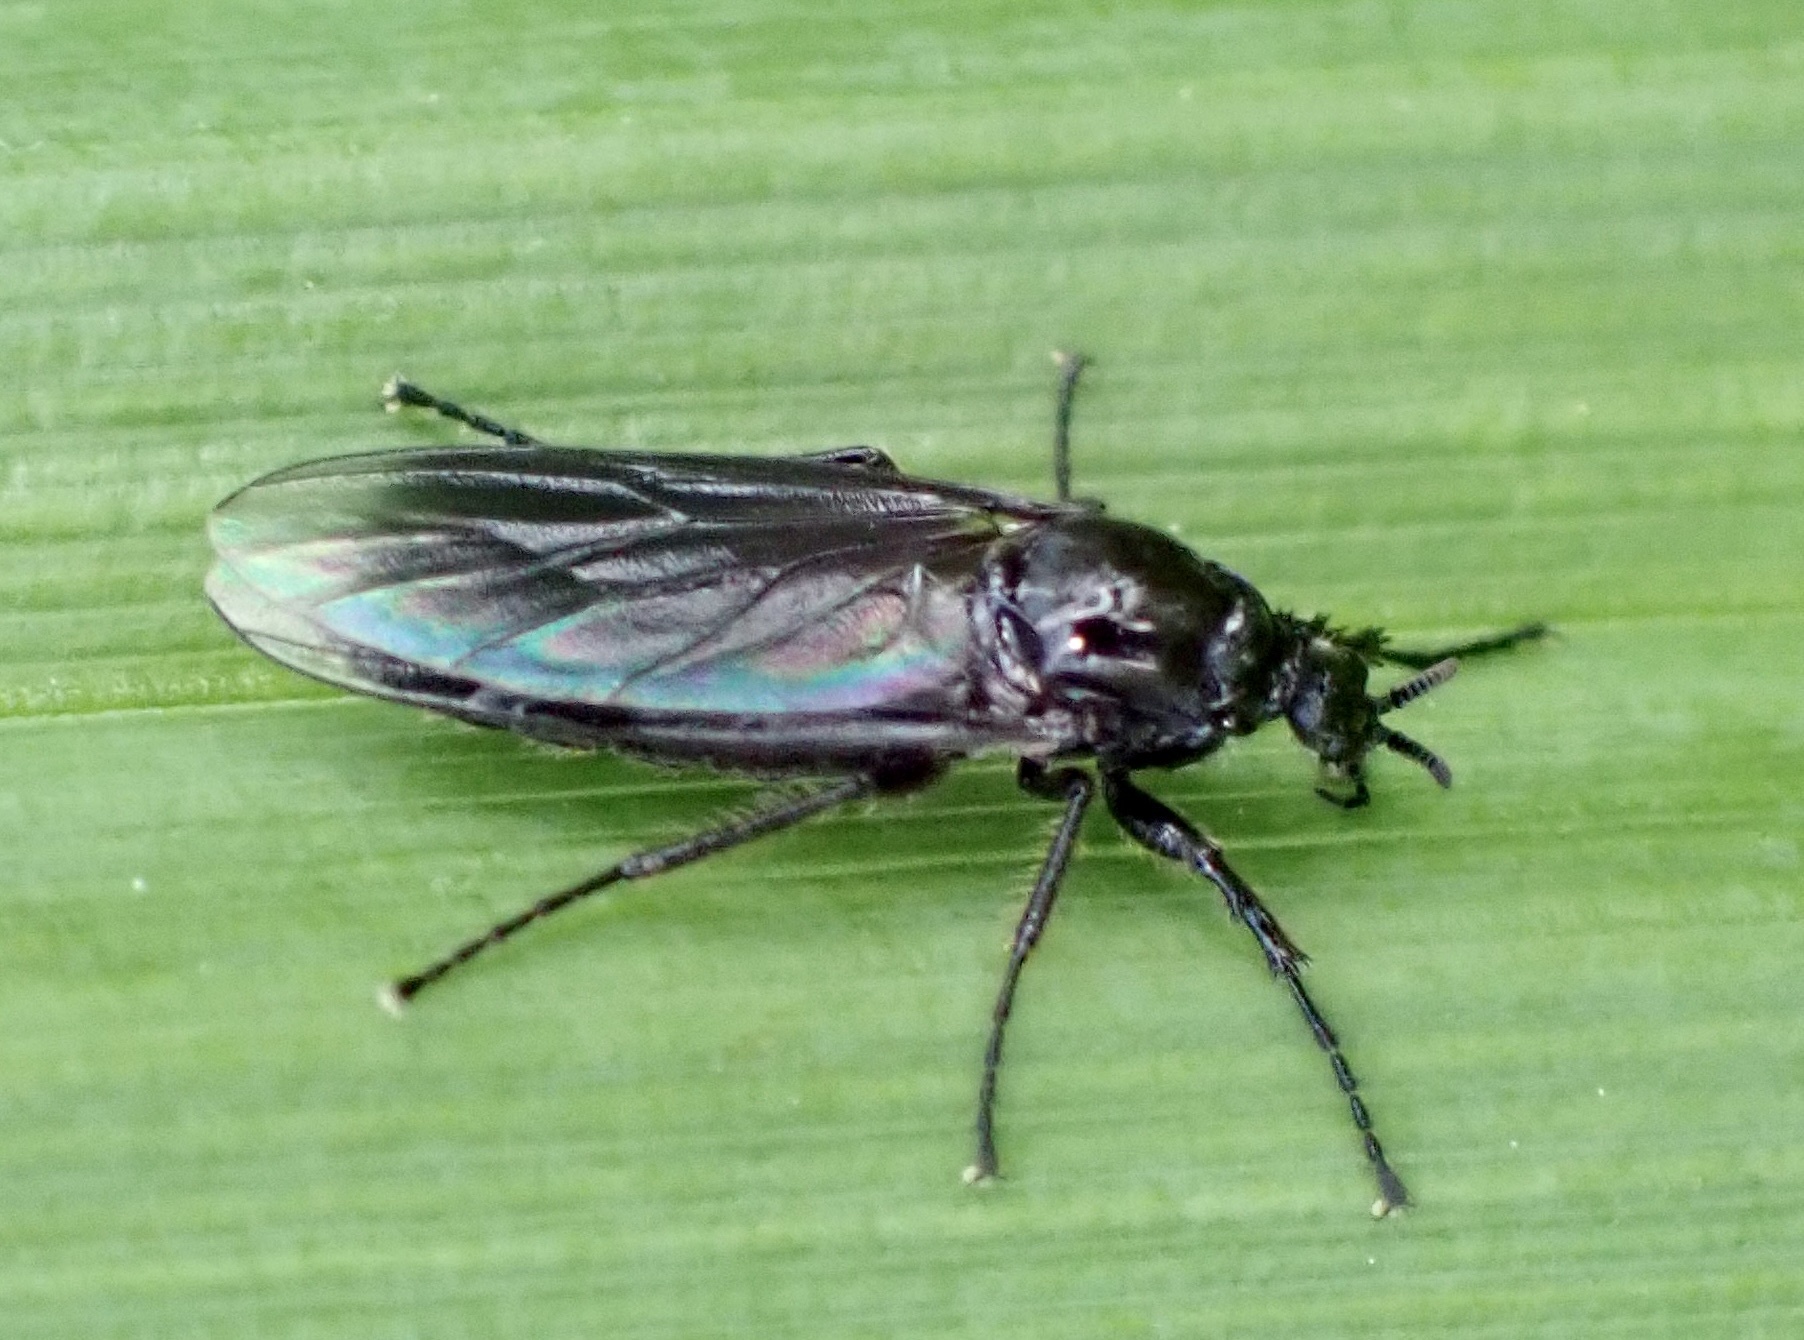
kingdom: Animalia
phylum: Arthropoda
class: Insecta
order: Diptera
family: Bibionidae
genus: Dilophus
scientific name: Dilophus febrilis
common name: Fever fly
